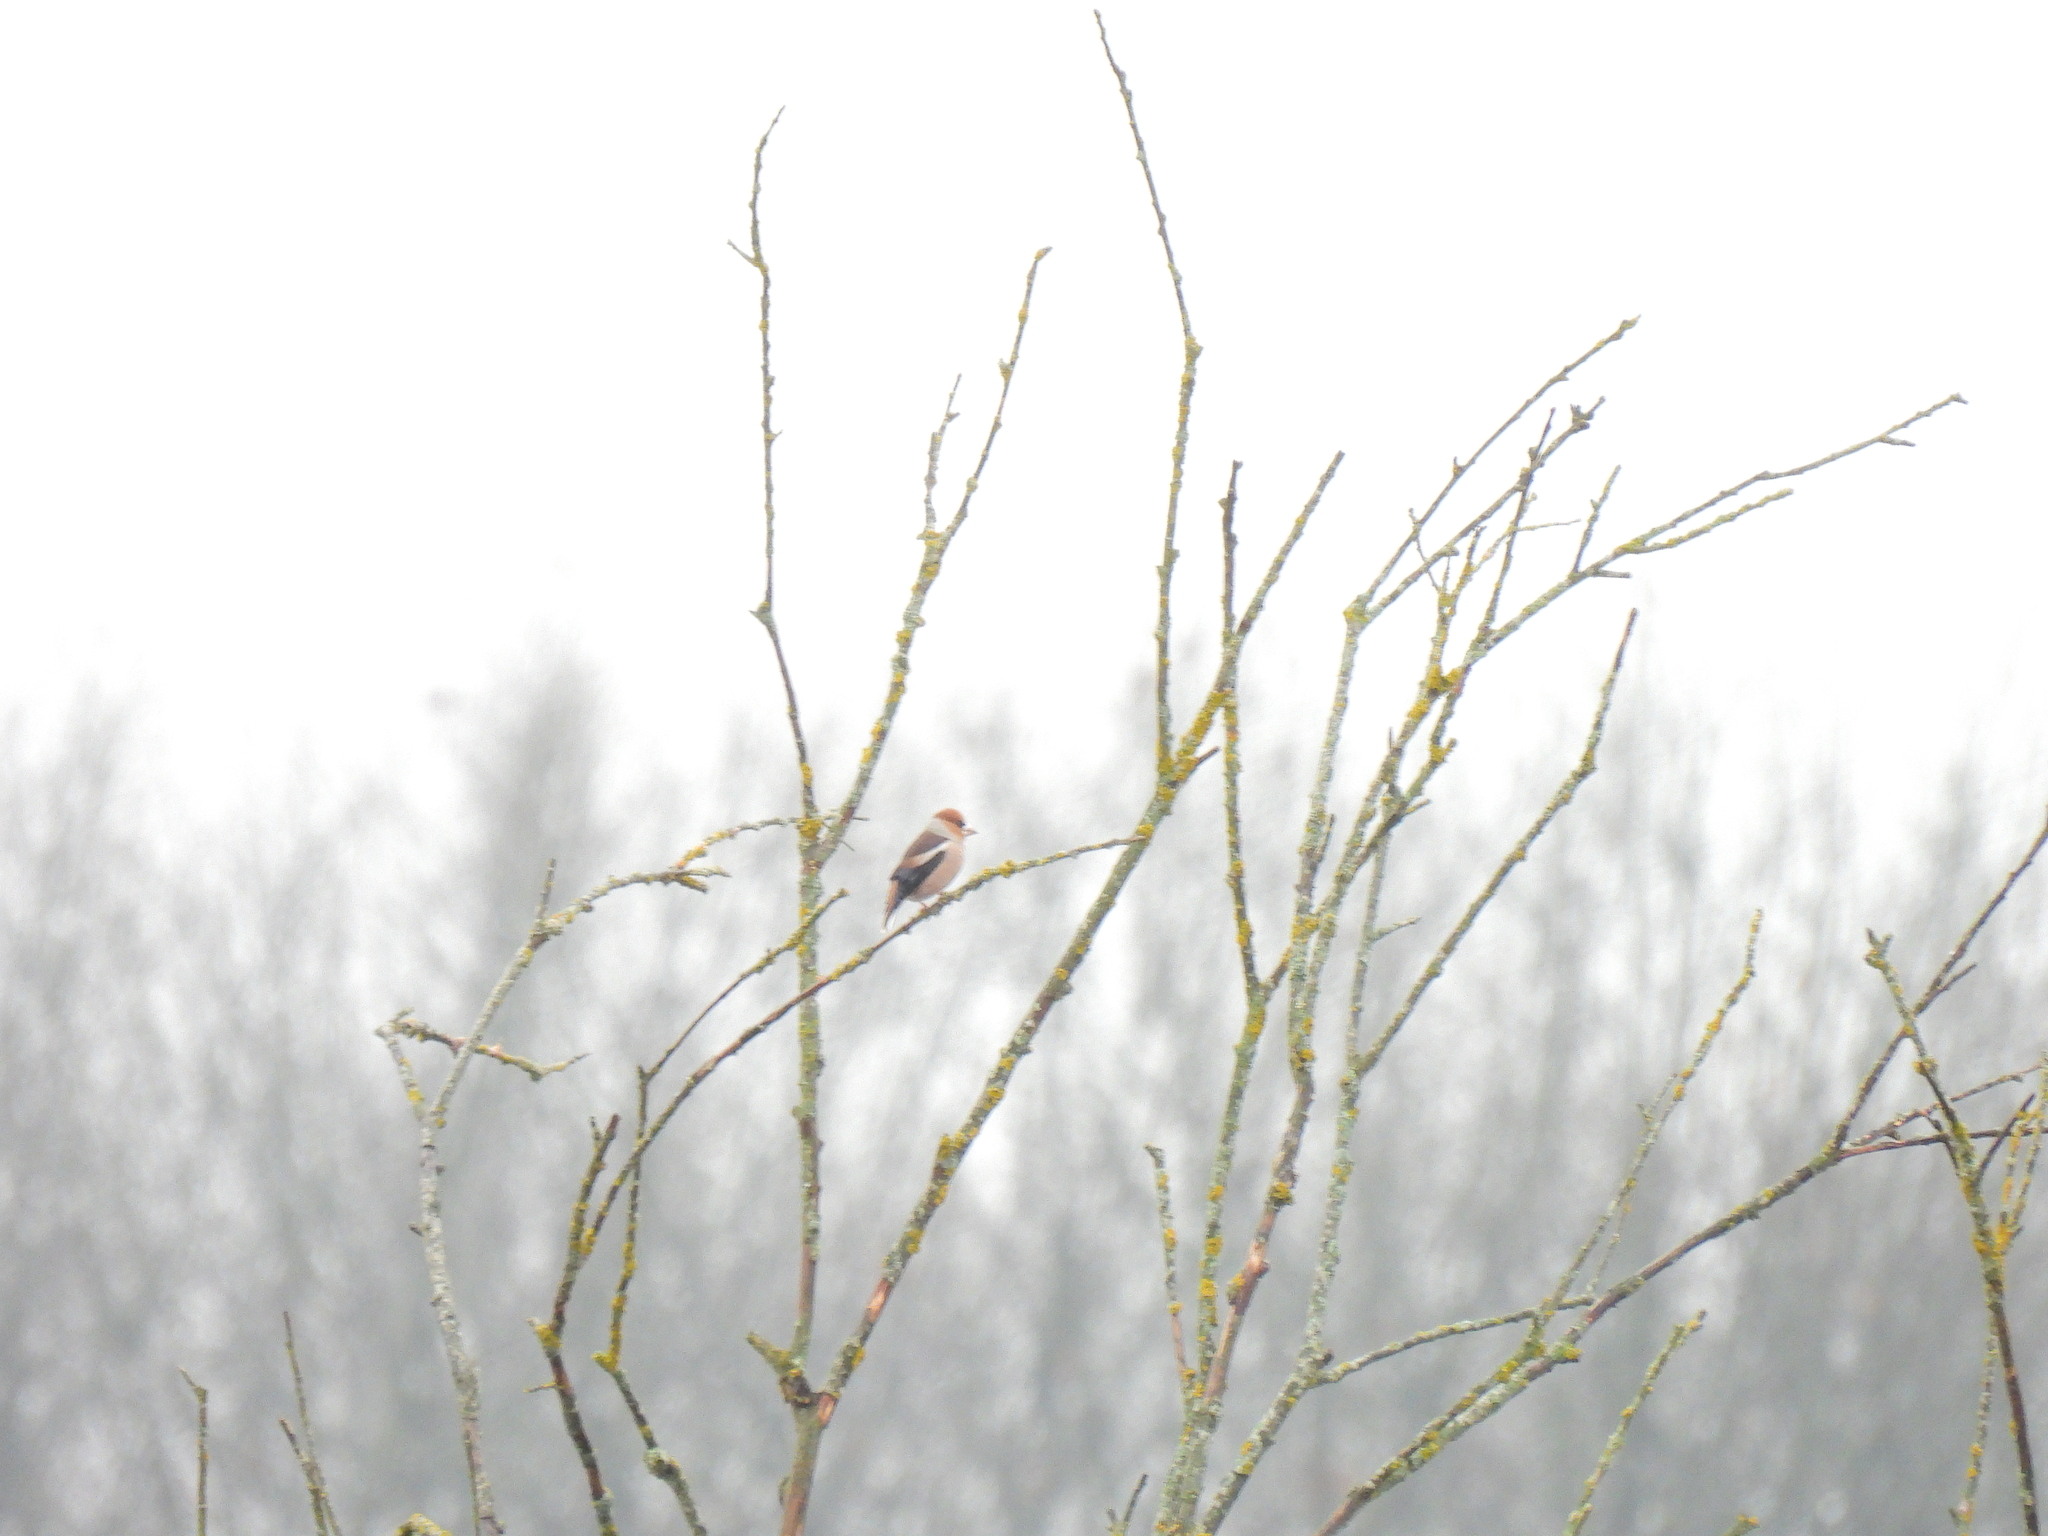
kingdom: Animalia
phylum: Chordata
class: Aves
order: Passeriformes
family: Fringillidae
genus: Coccothraustes
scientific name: Coccothraustes coccothraustes
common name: Hawfinch
